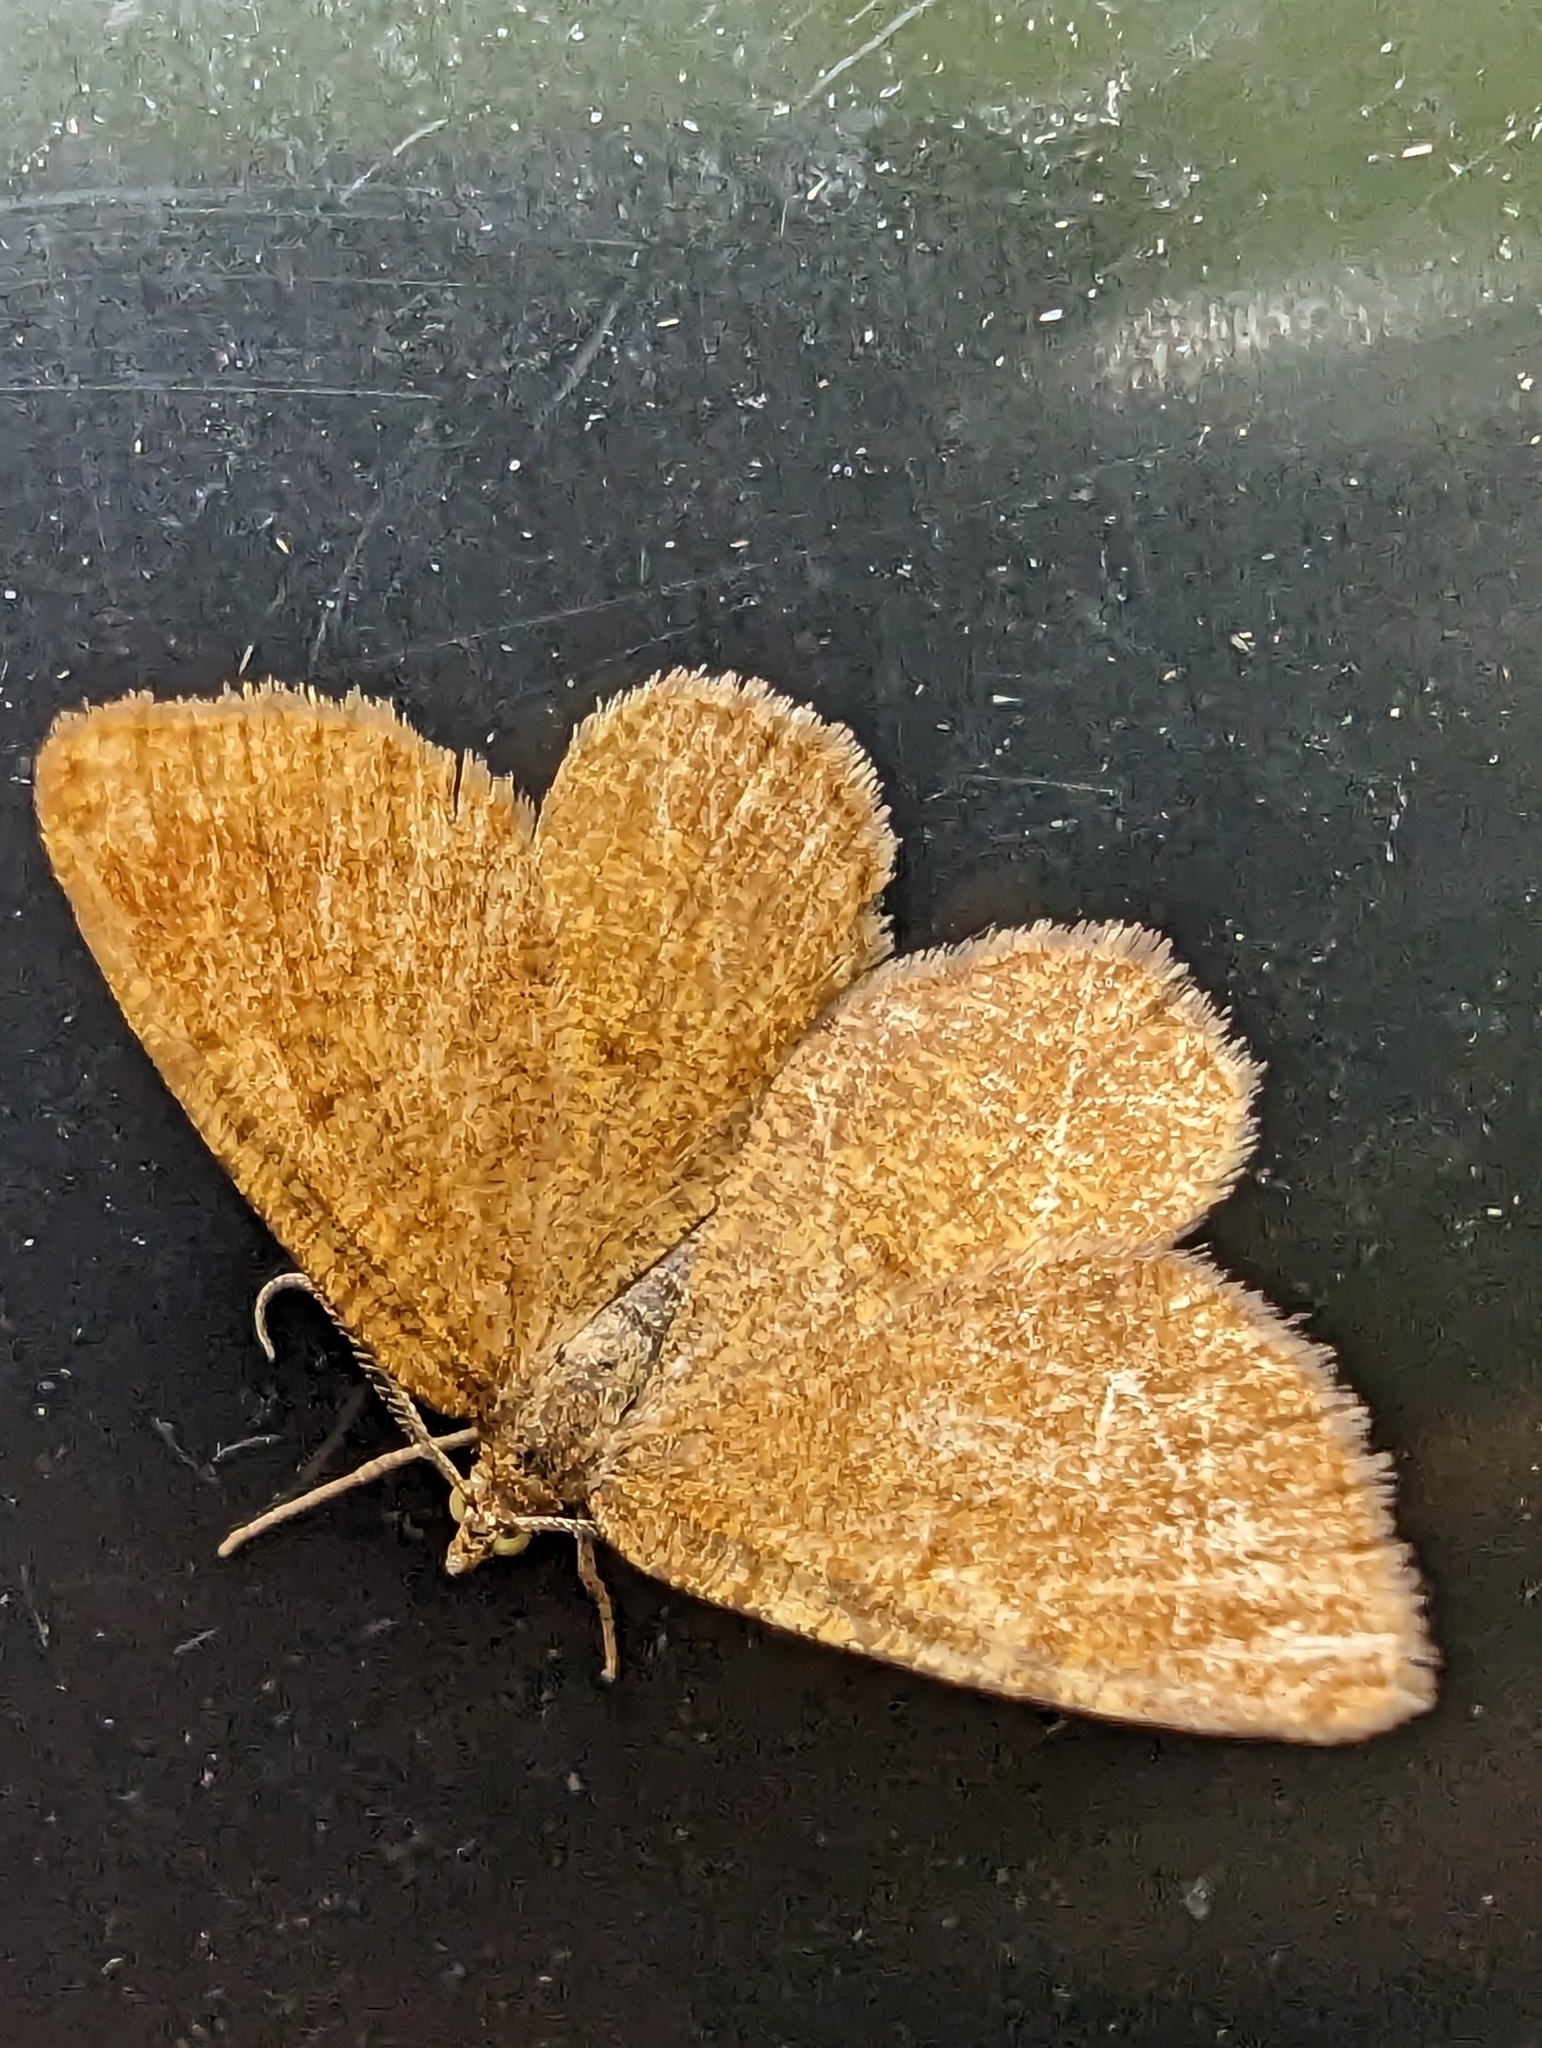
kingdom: Animalia
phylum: Arthropoda
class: Insecta
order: Lepidoptera
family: Geometridae
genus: Macaria
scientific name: Macaria brunneata
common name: Rannoch looper
